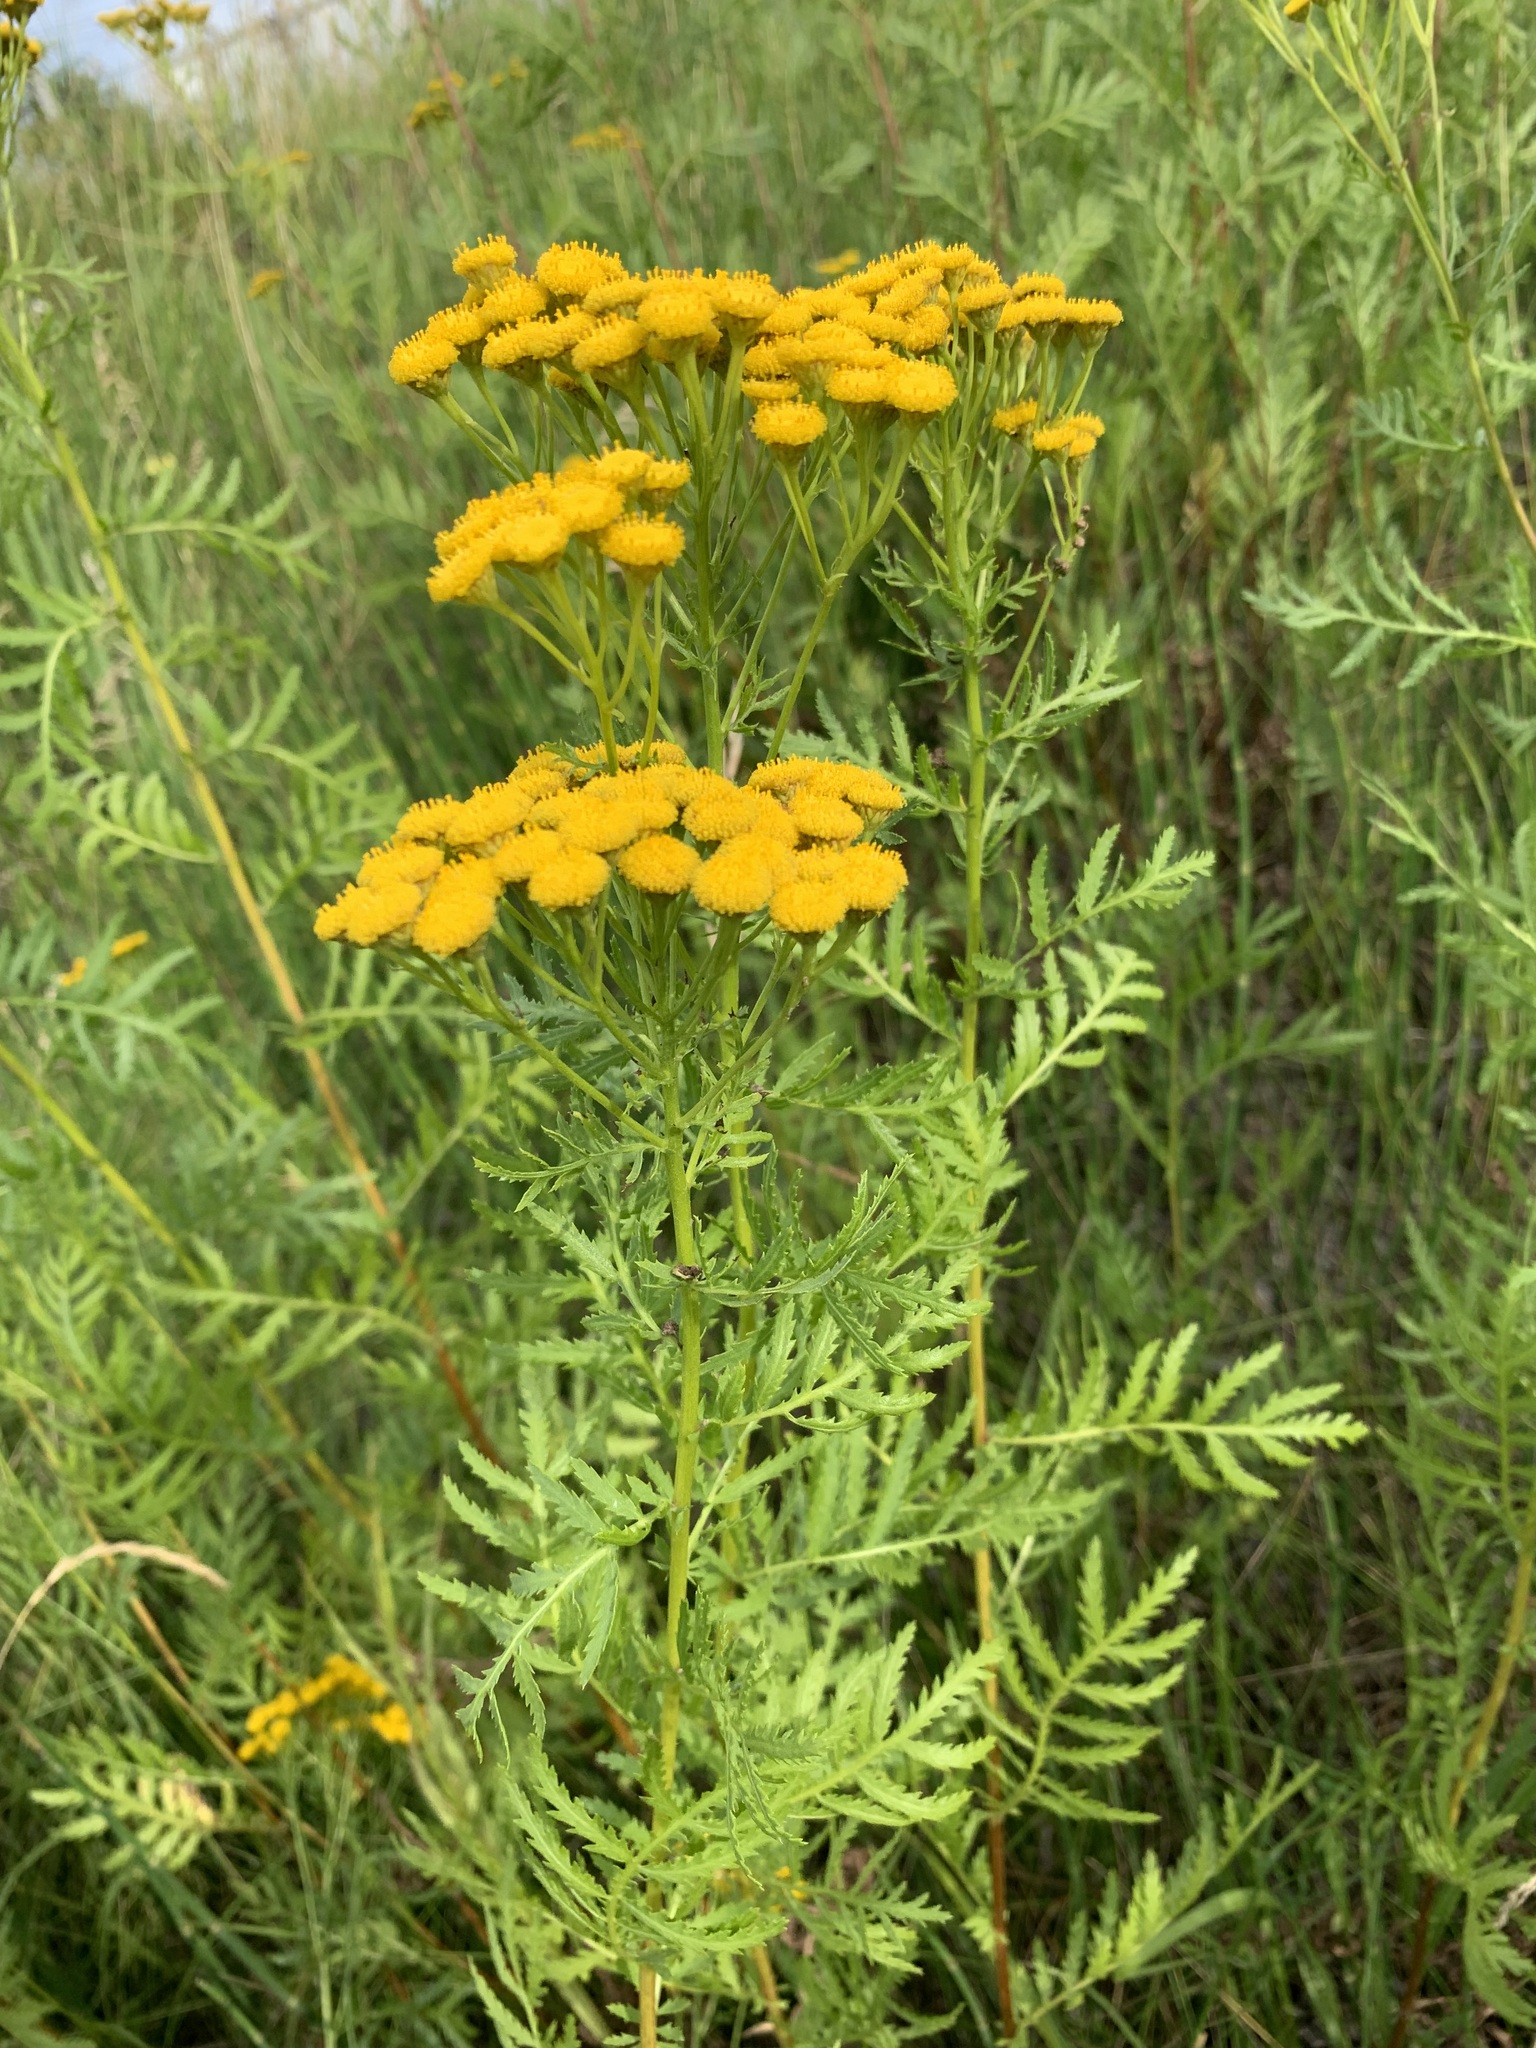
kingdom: Plantae
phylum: Tracheophyta
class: Magnoliopsida
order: Asterales
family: Asteraceae
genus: Tanacetum
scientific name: Tanacetum vulgare
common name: Common tansy
